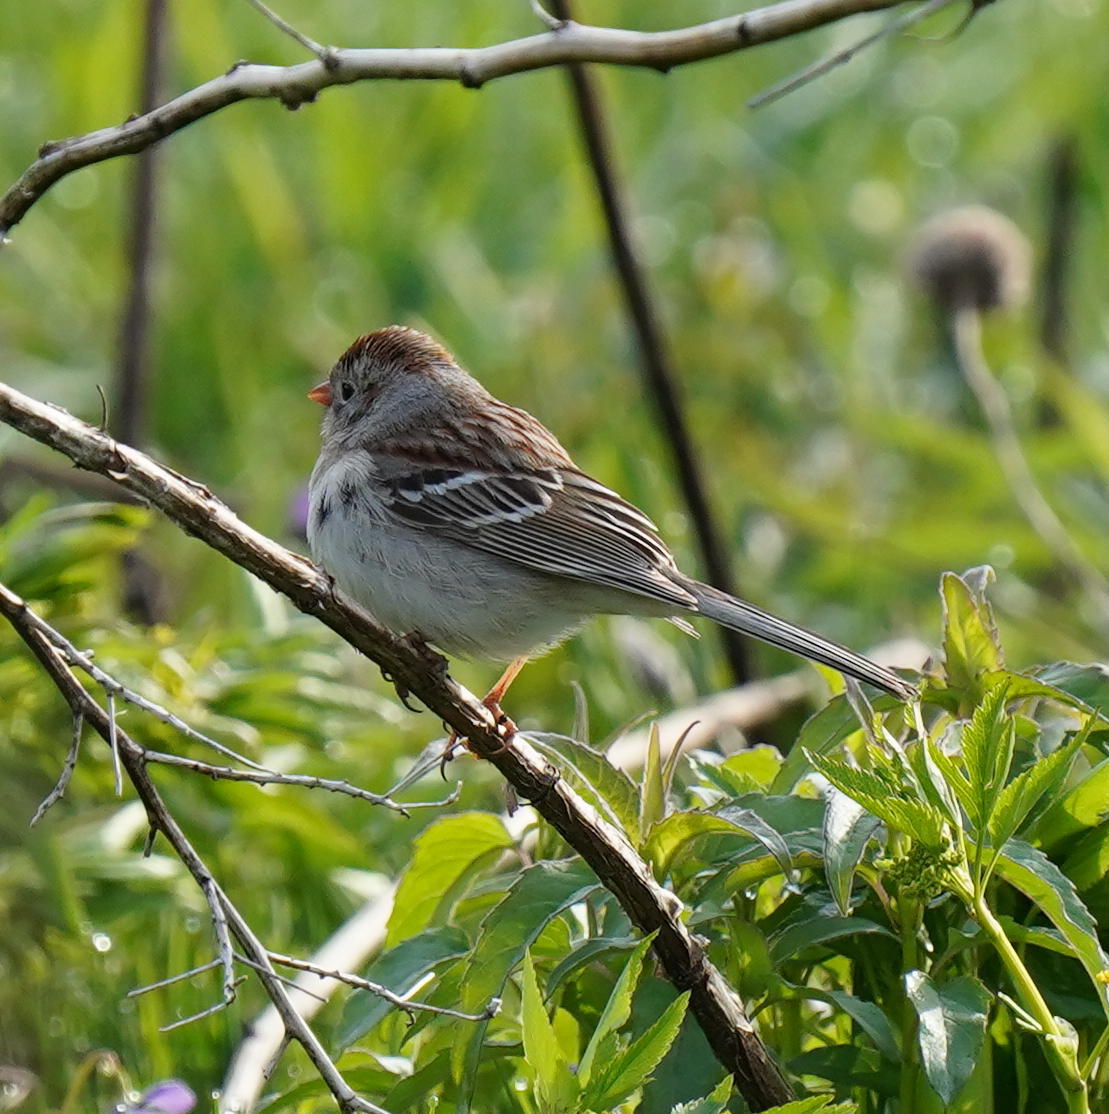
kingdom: Animalia
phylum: Chordata
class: Aves
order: Passeriformes
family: Passerellidae
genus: Spizella
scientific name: Spizella pusilla
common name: Field sparrow
